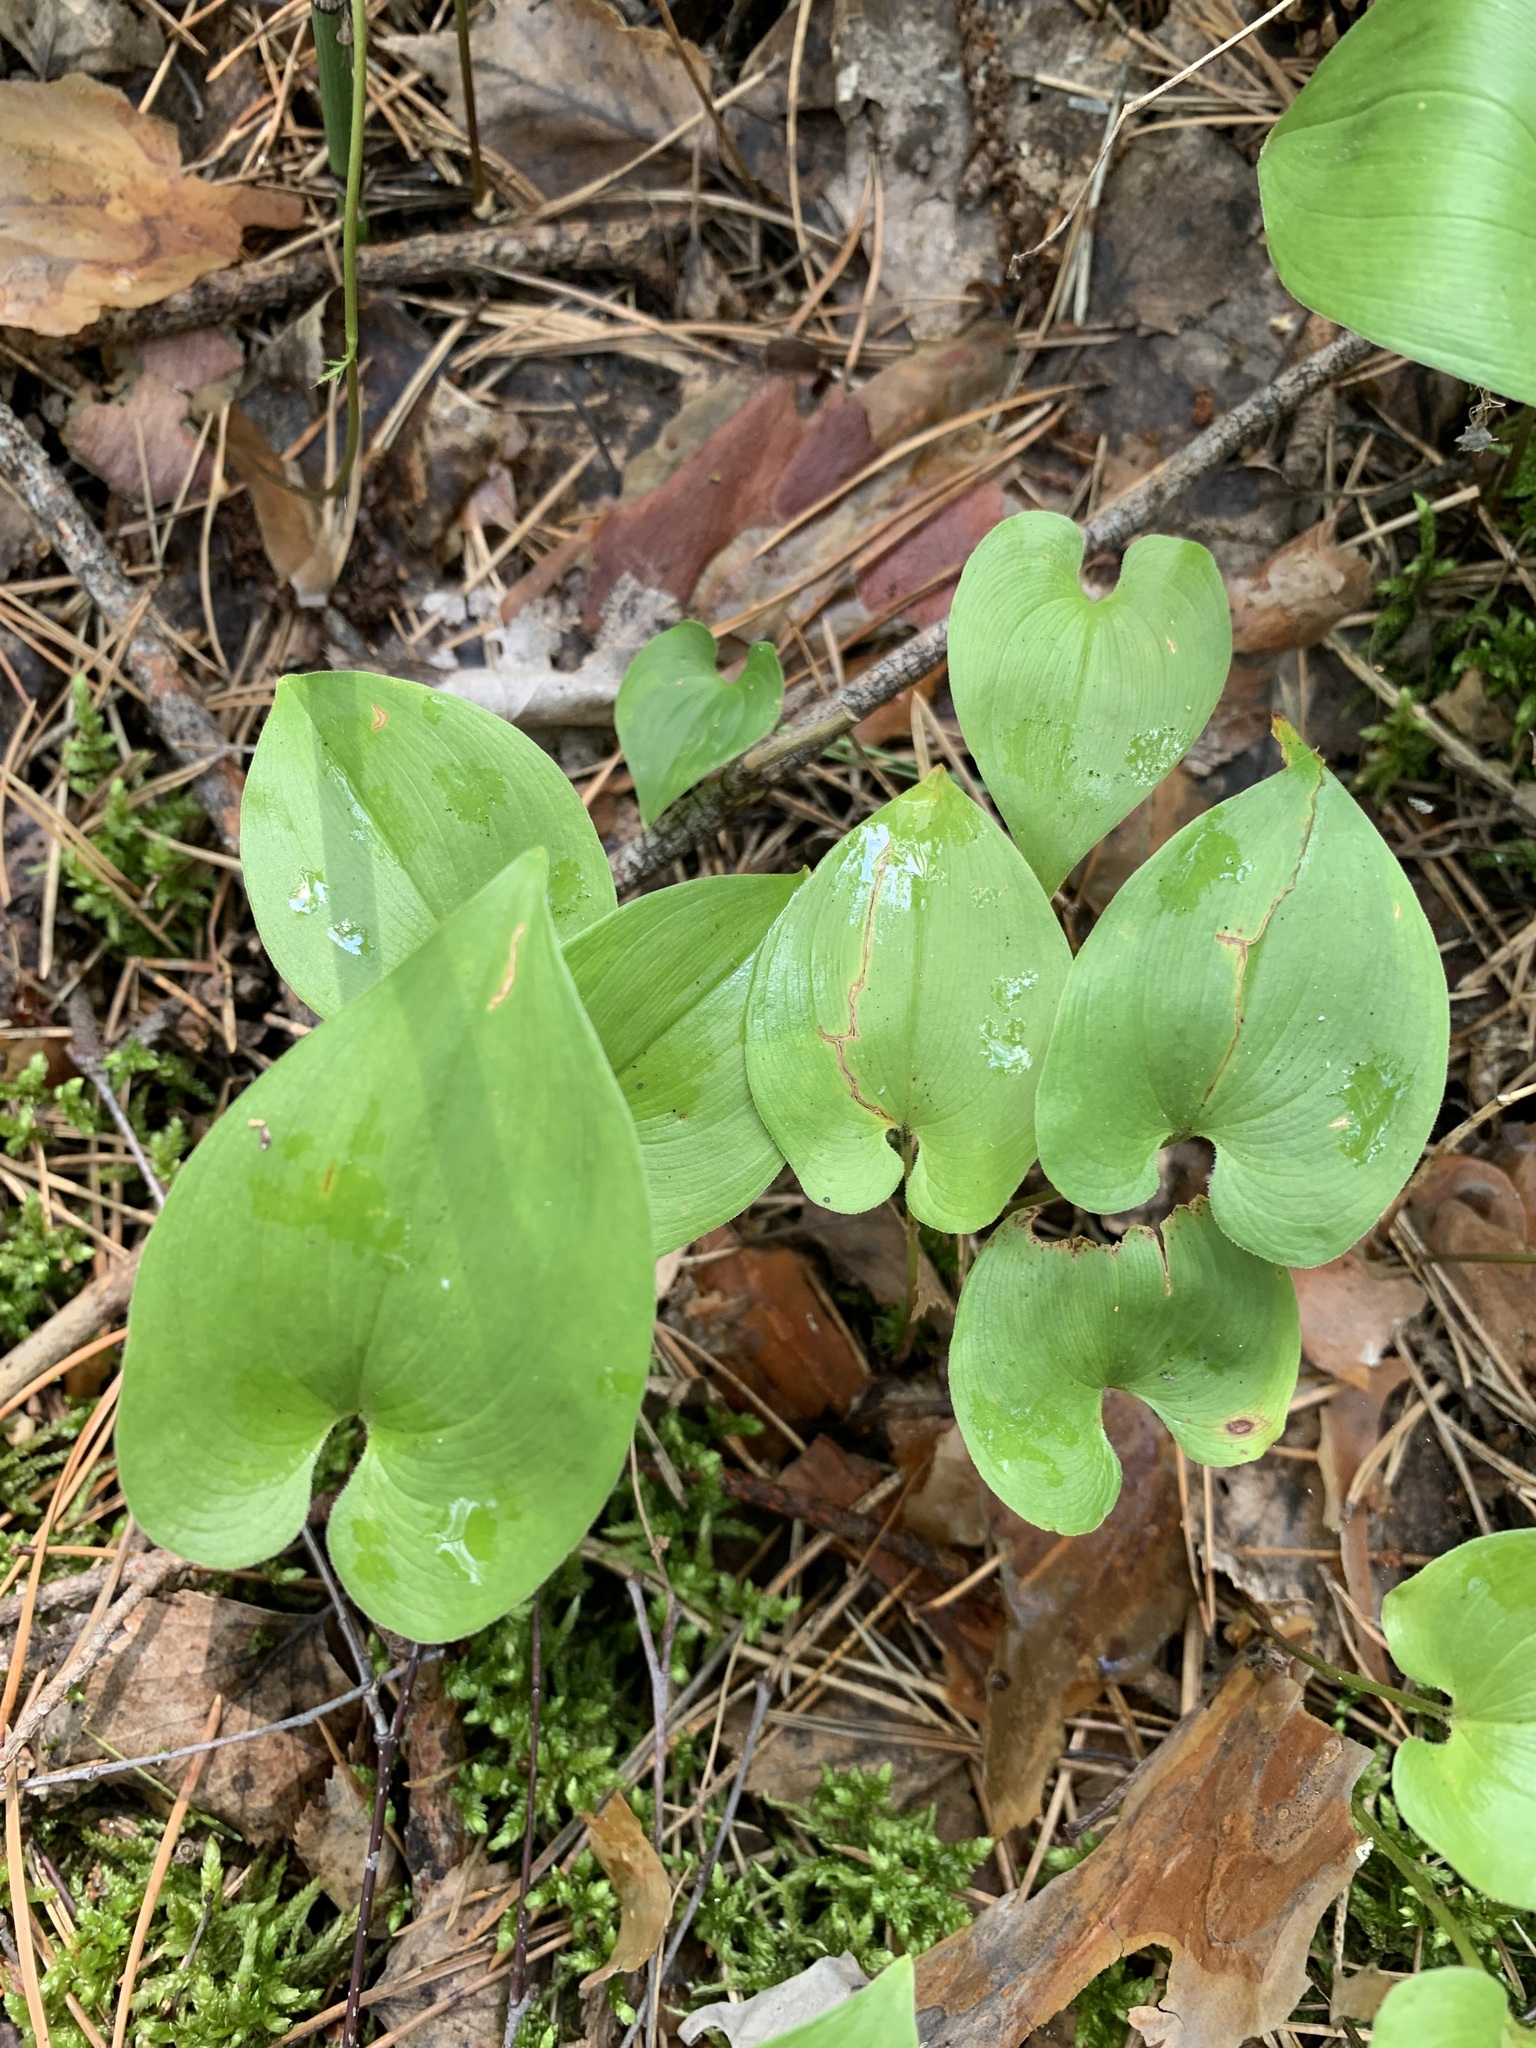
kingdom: Plantae
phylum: Tracheophyta
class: Liliopsida
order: Asparagales
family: Asparagaceae
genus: Maianthemum
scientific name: Maianthemum bifolium
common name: May lily
